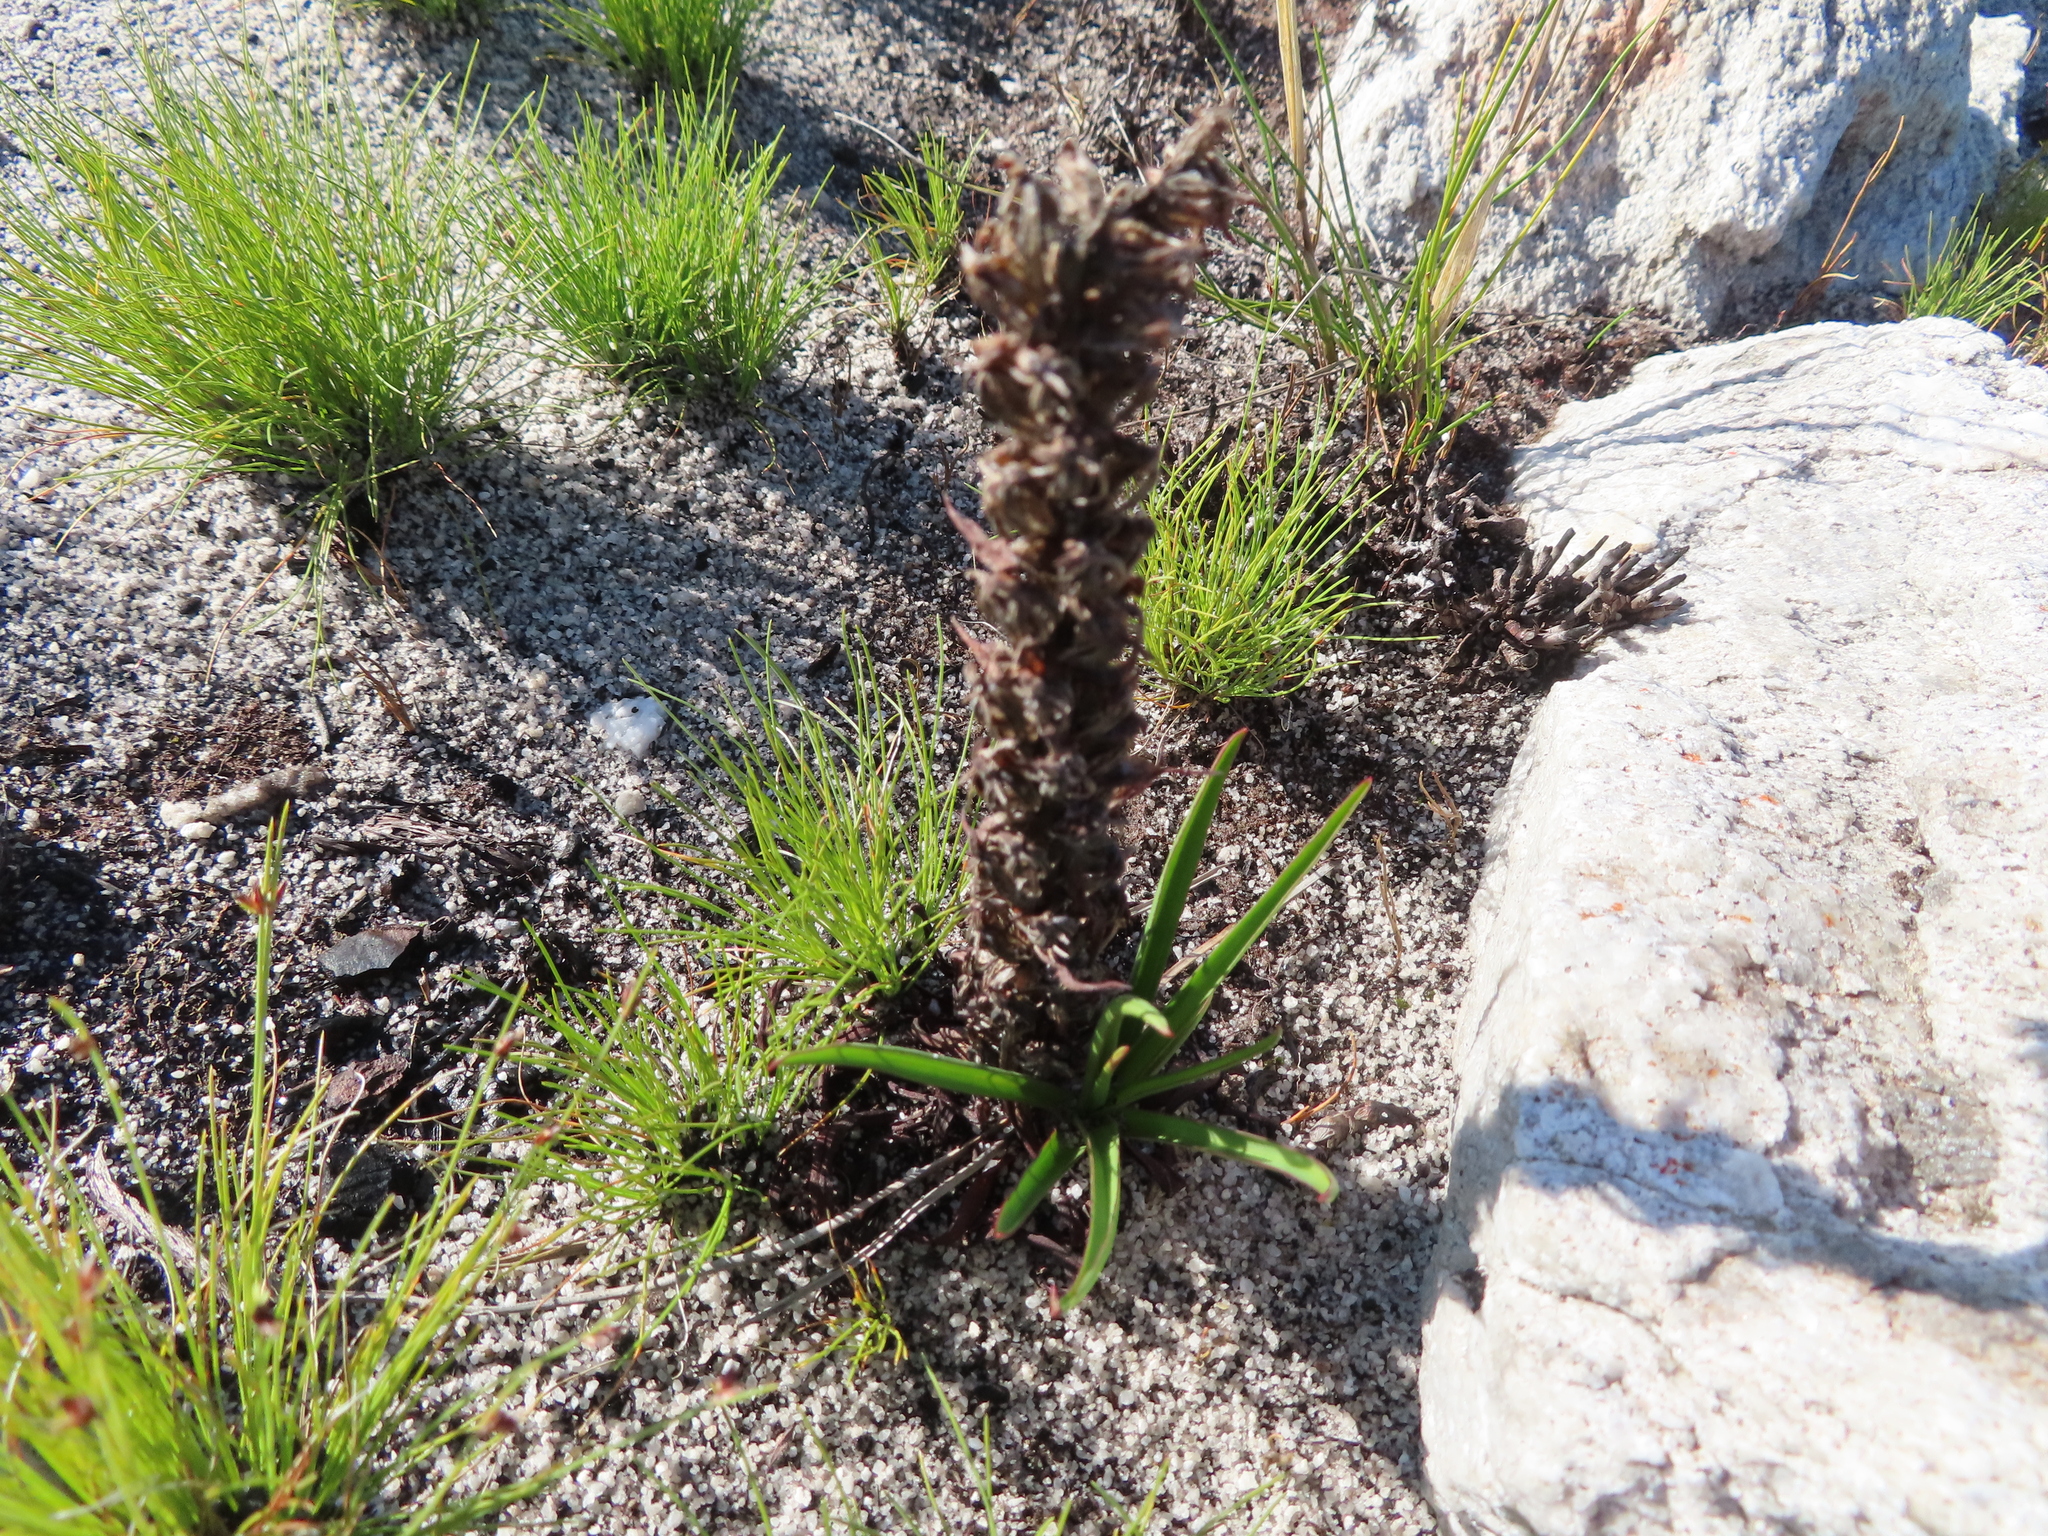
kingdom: Plantae
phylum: Tracheophyta
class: Liliopsida
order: Asparagales
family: Orchidaceae
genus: Disa
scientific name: Disa bracteata
